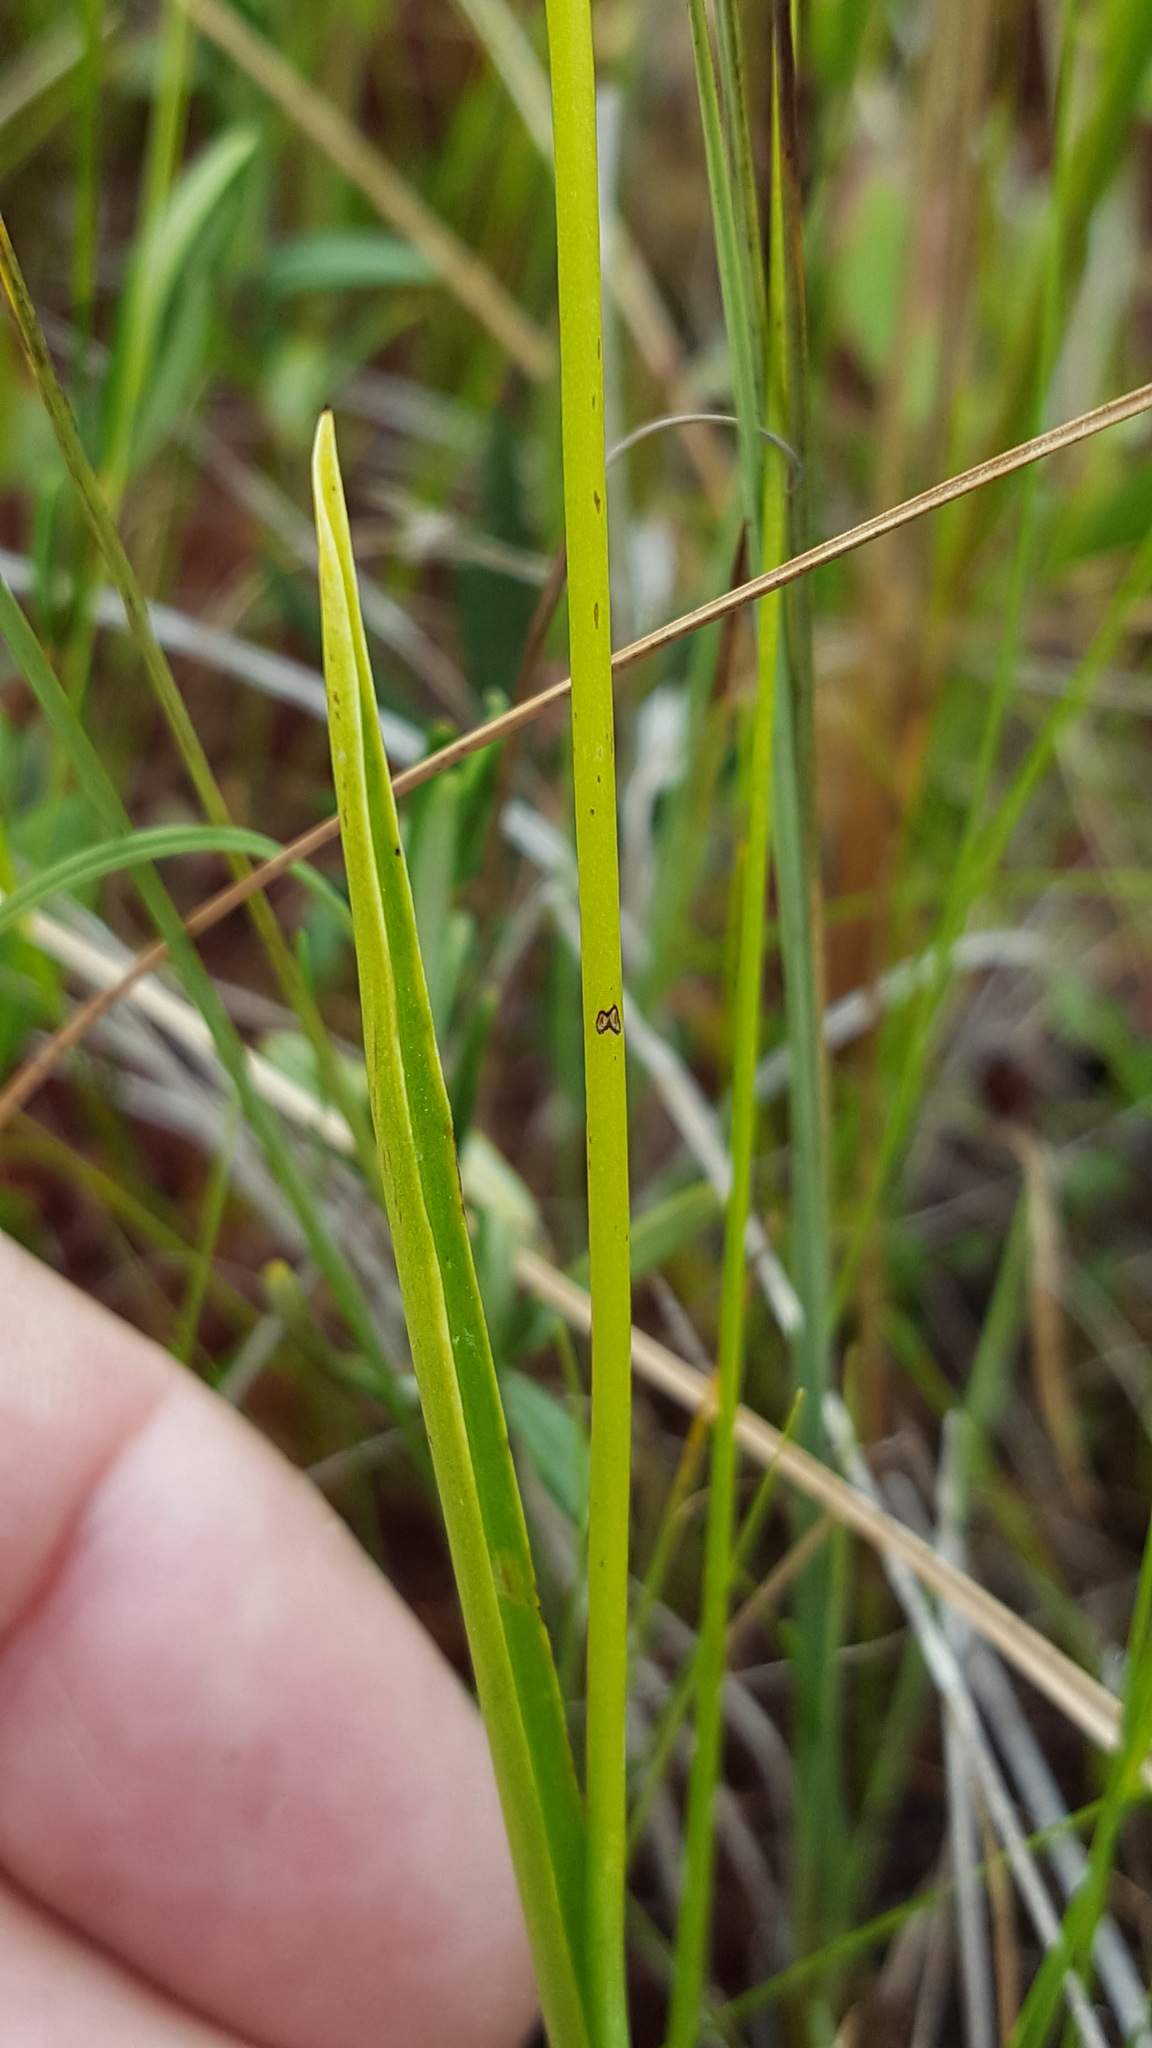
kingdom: Plantae
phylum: Tracheophyta
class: Liliopsida
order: Asparagales
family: Orchidaceae
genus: Calopogon
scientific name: Calopogon tuberosus
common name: Grass-pink
